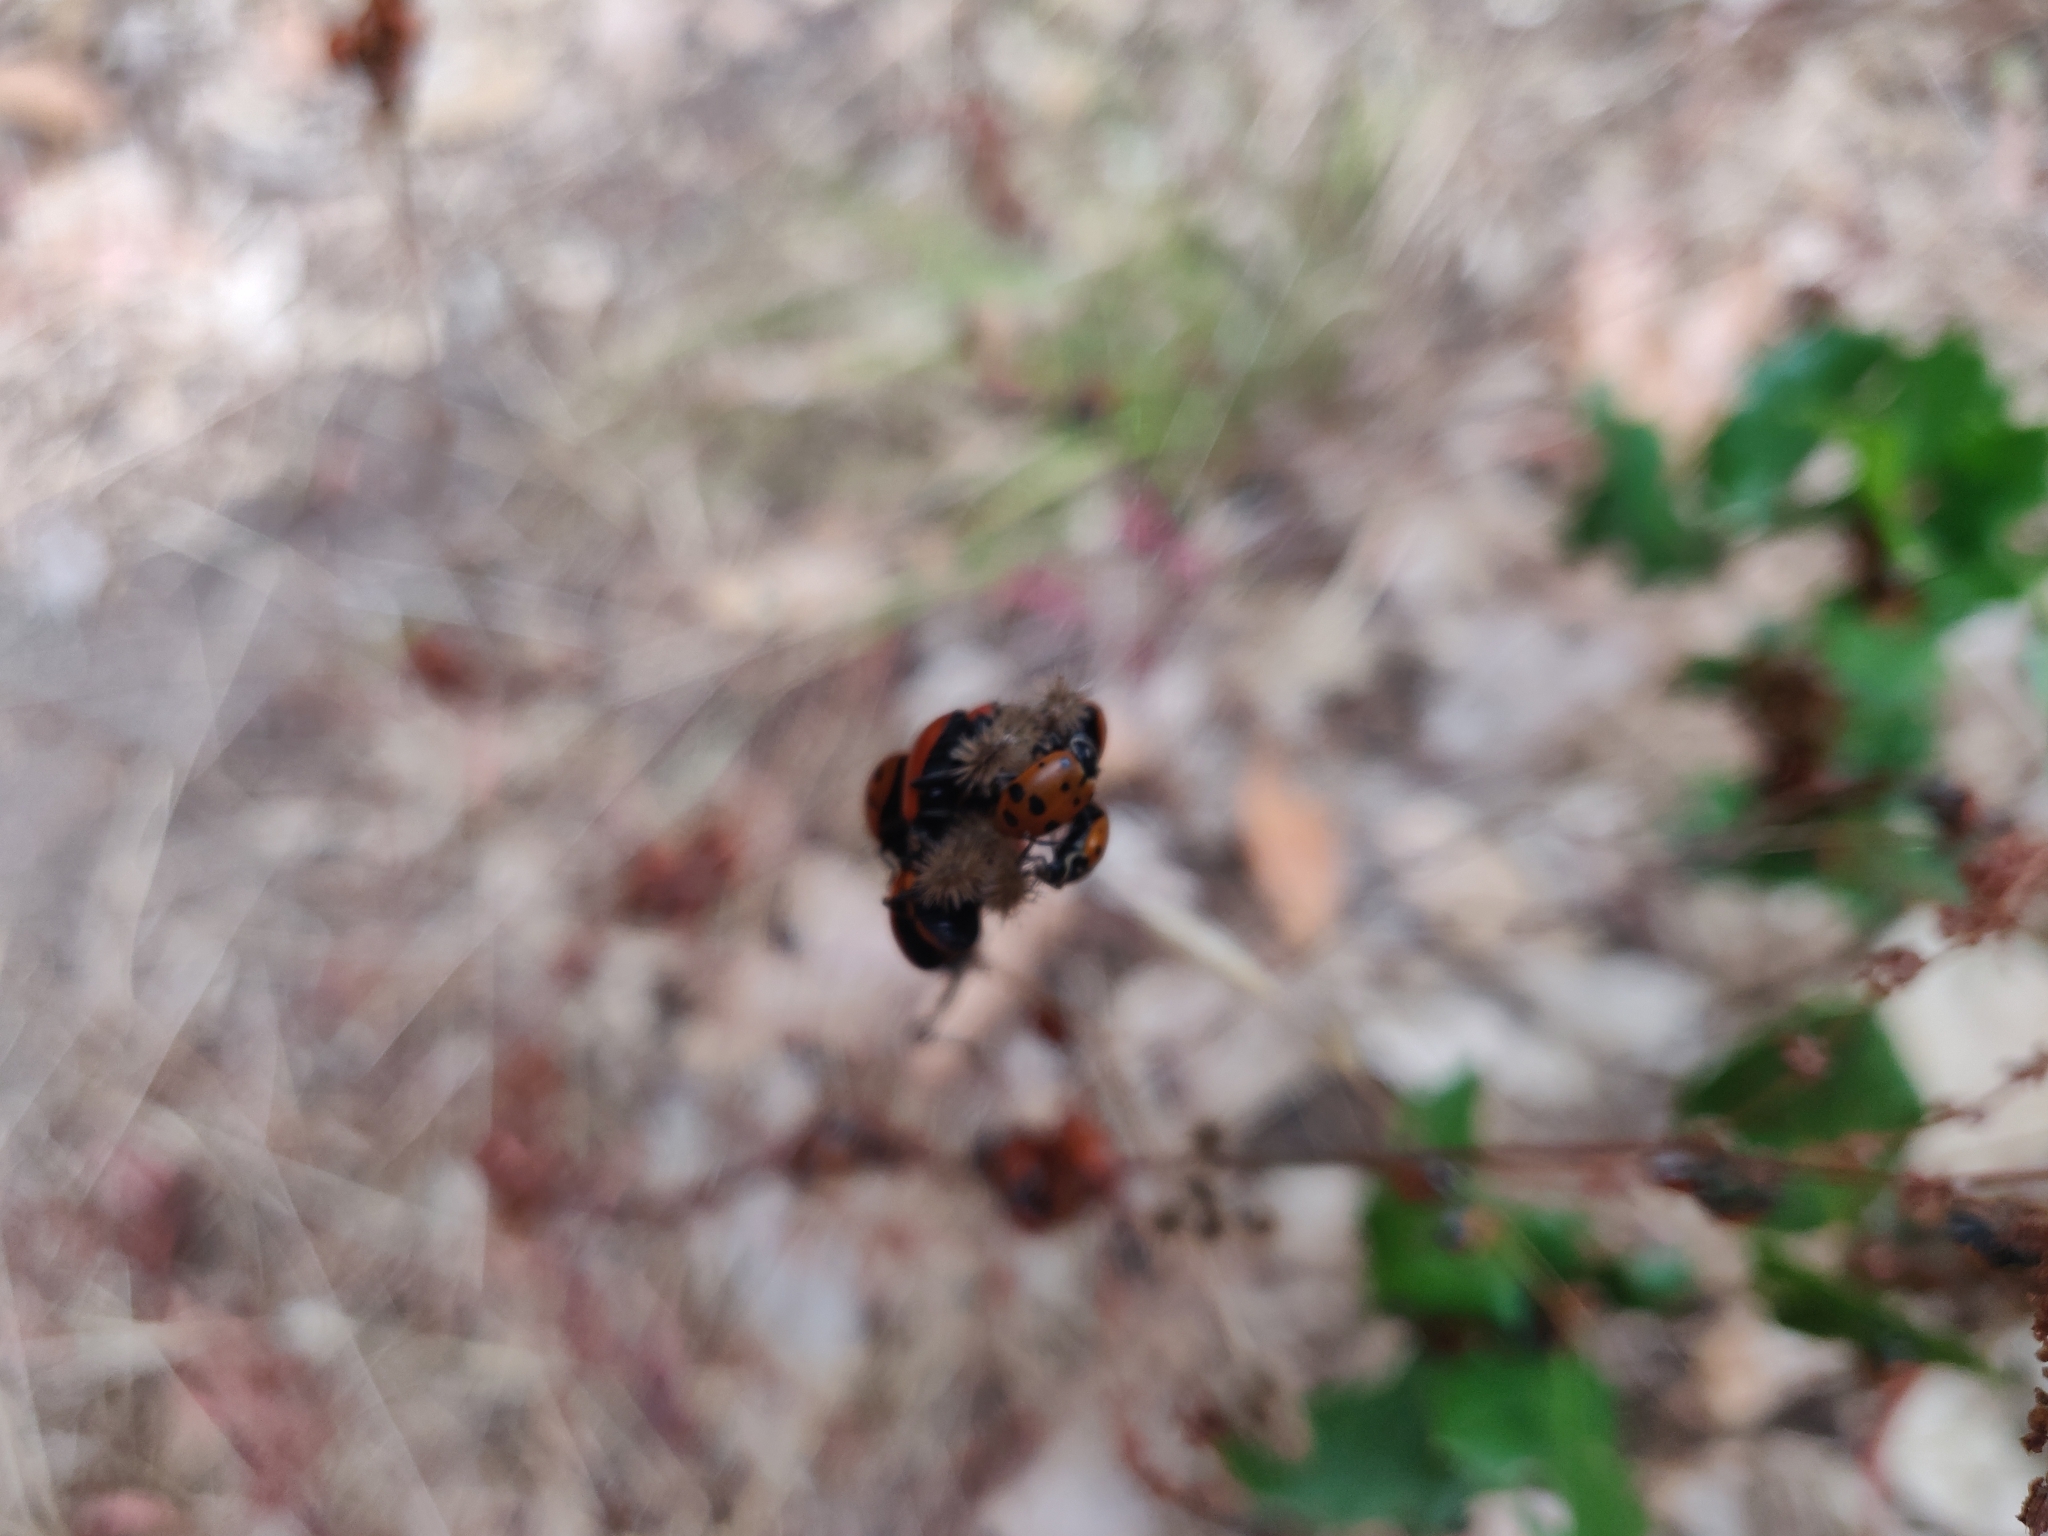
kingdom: Animalia
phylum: Arthropoda
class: Insecta
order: Coleoptera
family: Coccinellidae
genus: Hippodamia
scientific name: Hippodamia convergens
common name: Convergent lady beetle
